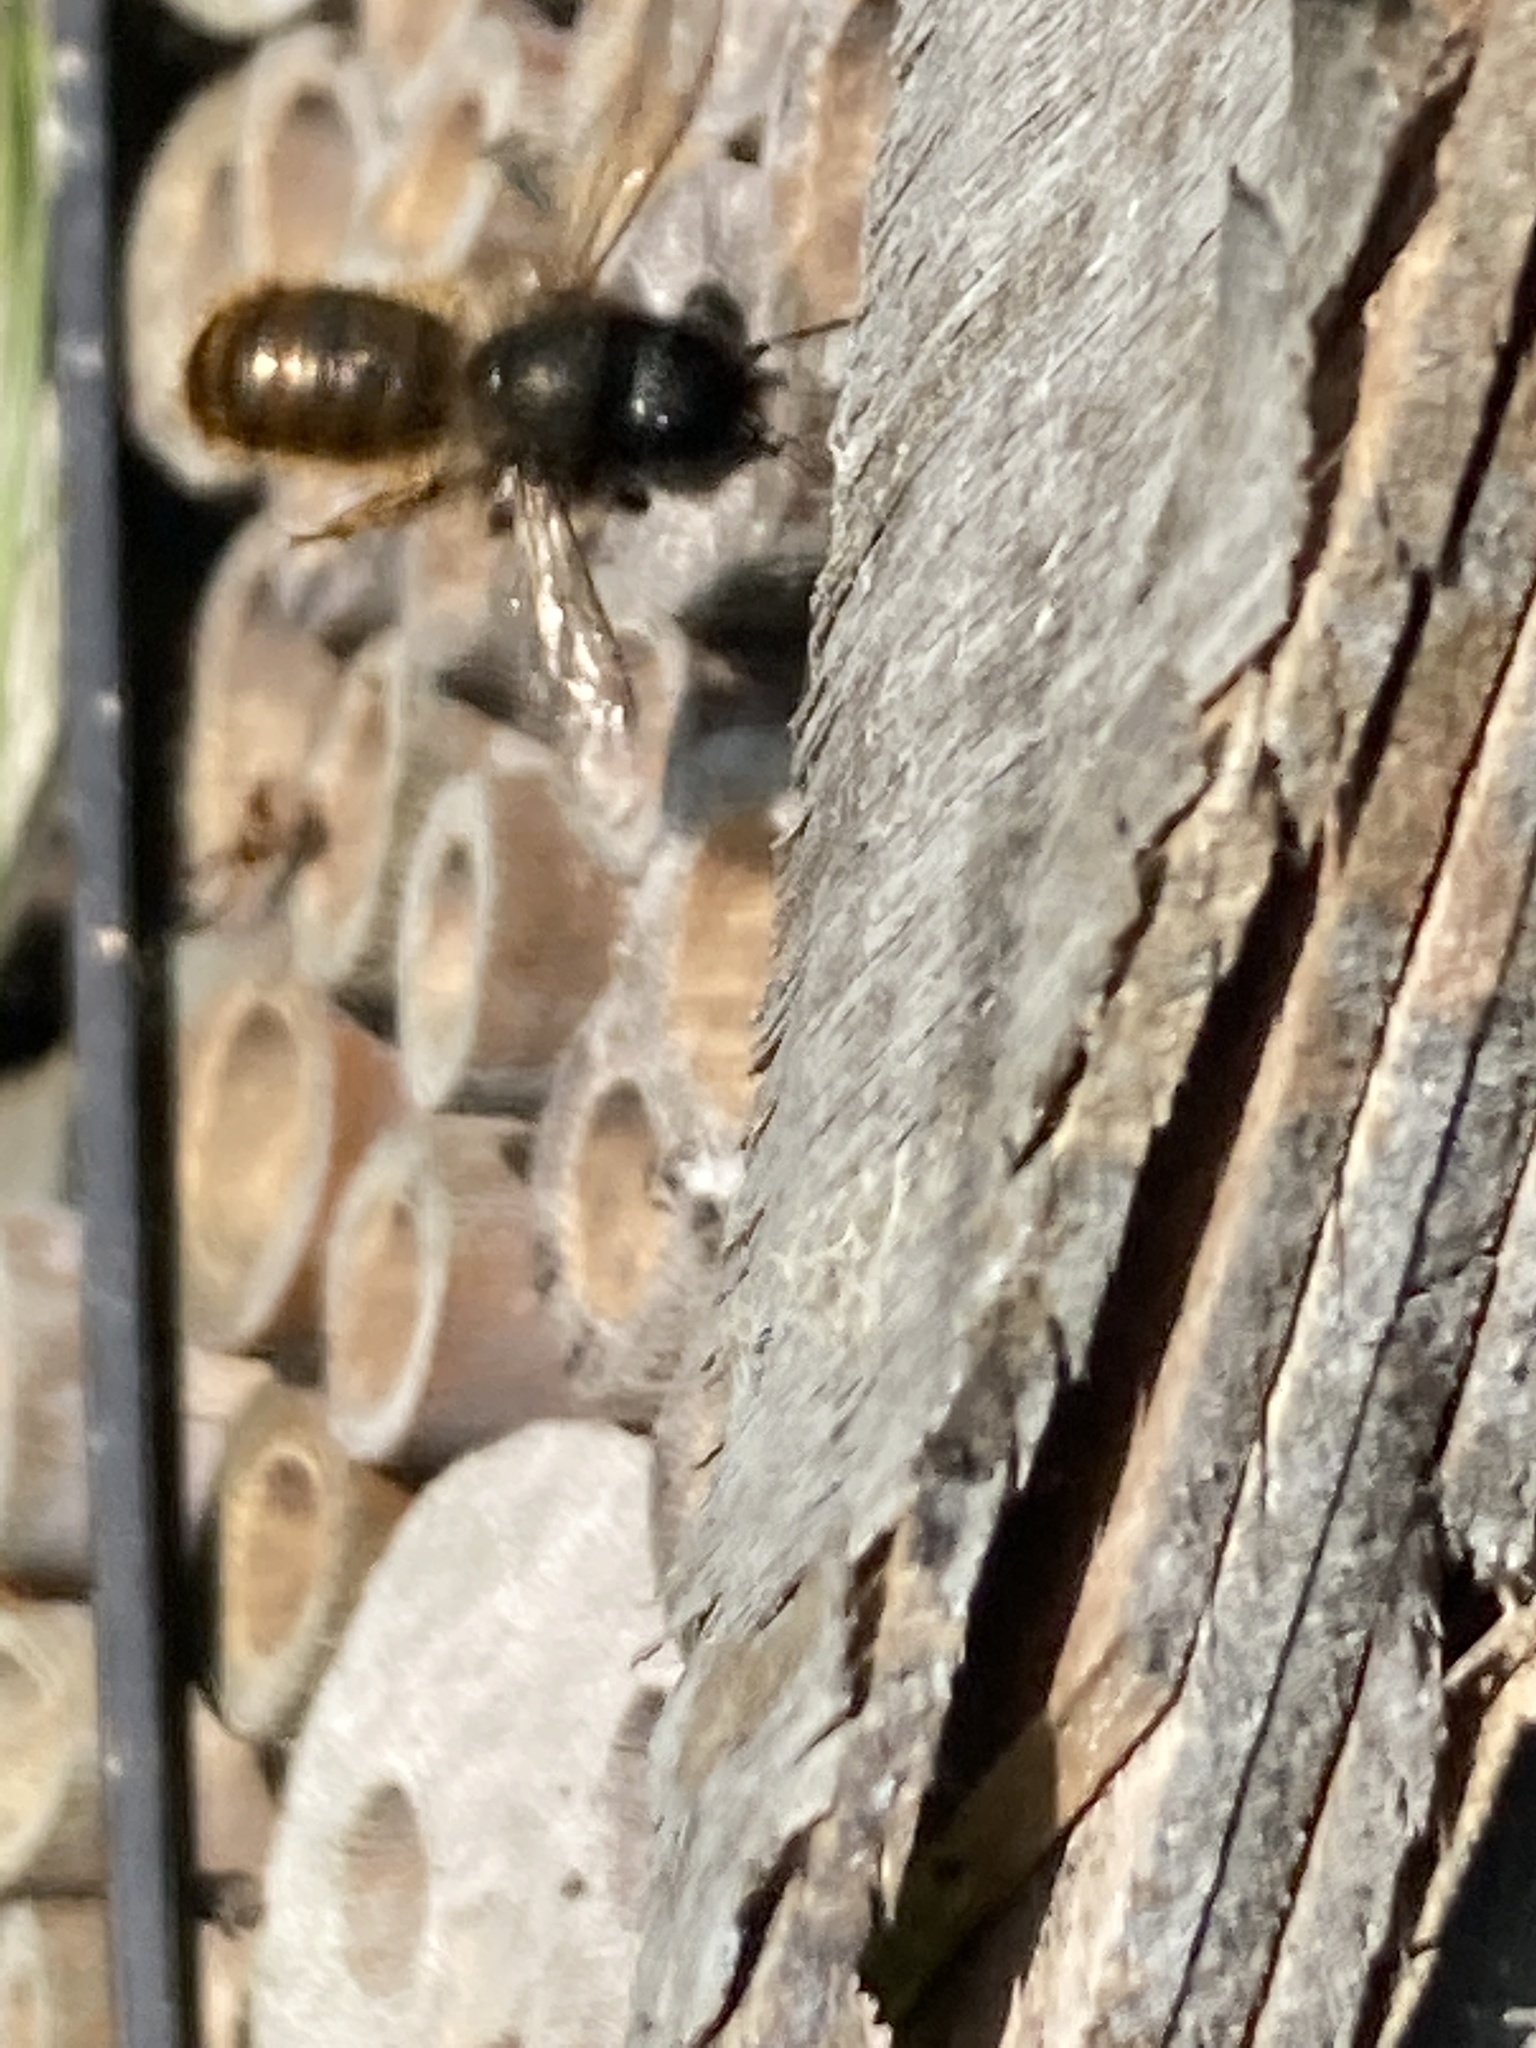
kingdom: Animalia
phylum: Arthropoda
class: Insecta
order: Hymenoptera
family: Megachilidae
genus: Osmia
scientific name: Osmia bicornis
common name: Red mason bee
